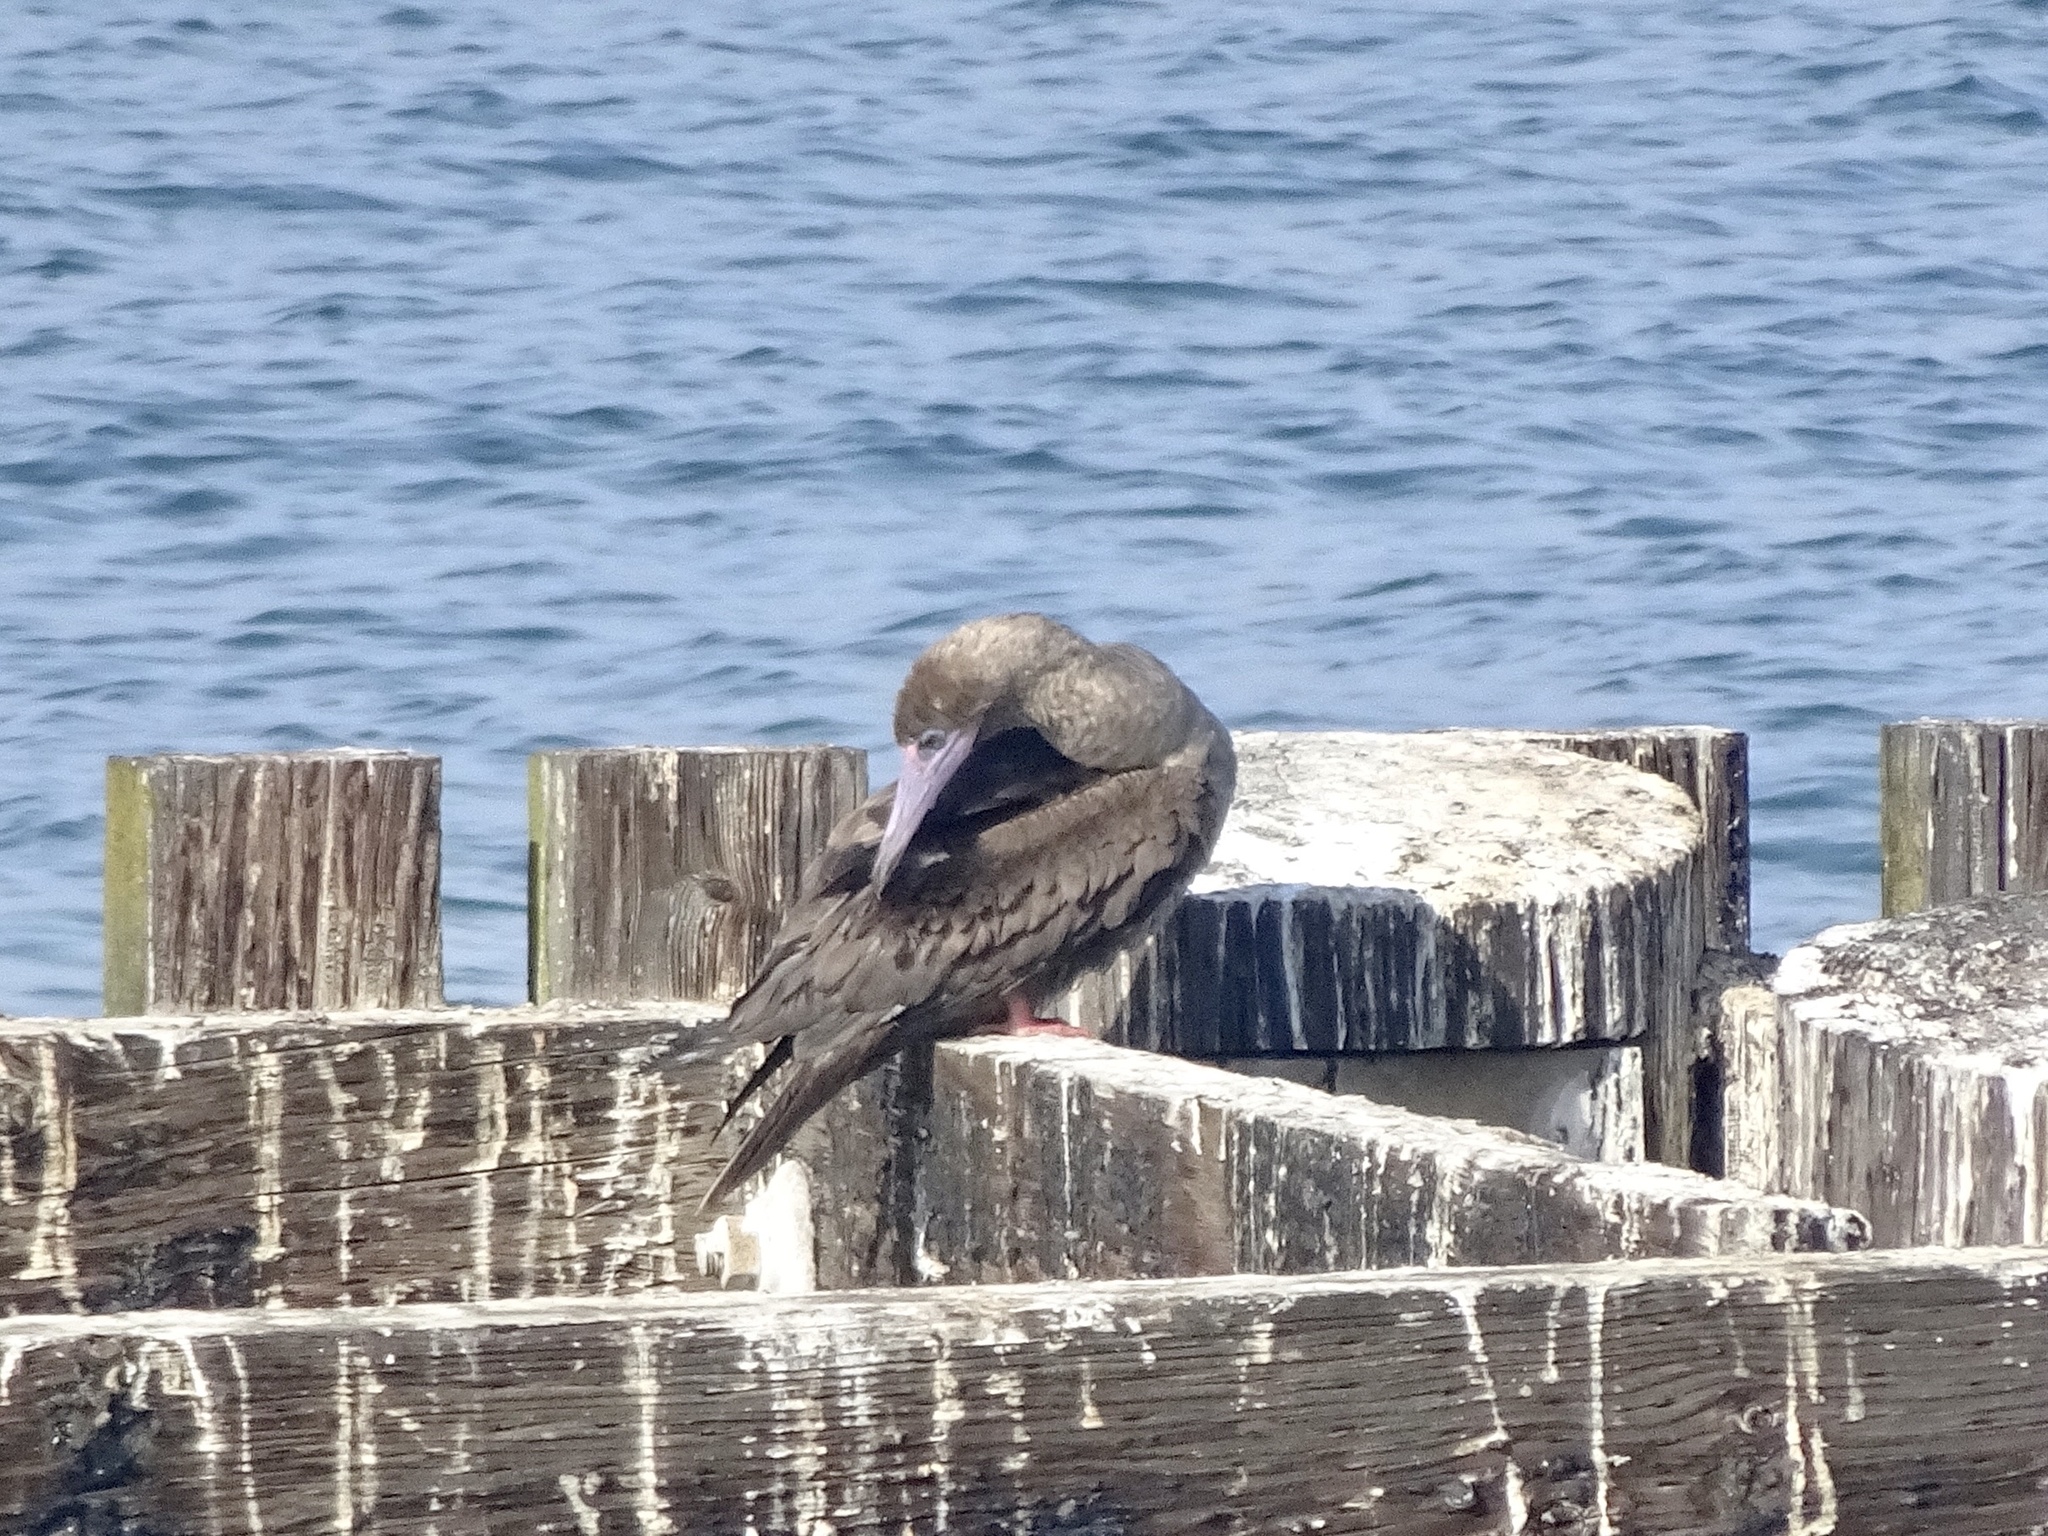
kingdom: Animalia
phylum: Chordata
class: Aves
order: Suliformes
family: Sulidae
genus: Sula
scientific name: Sula sula
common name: Red-footed booby
